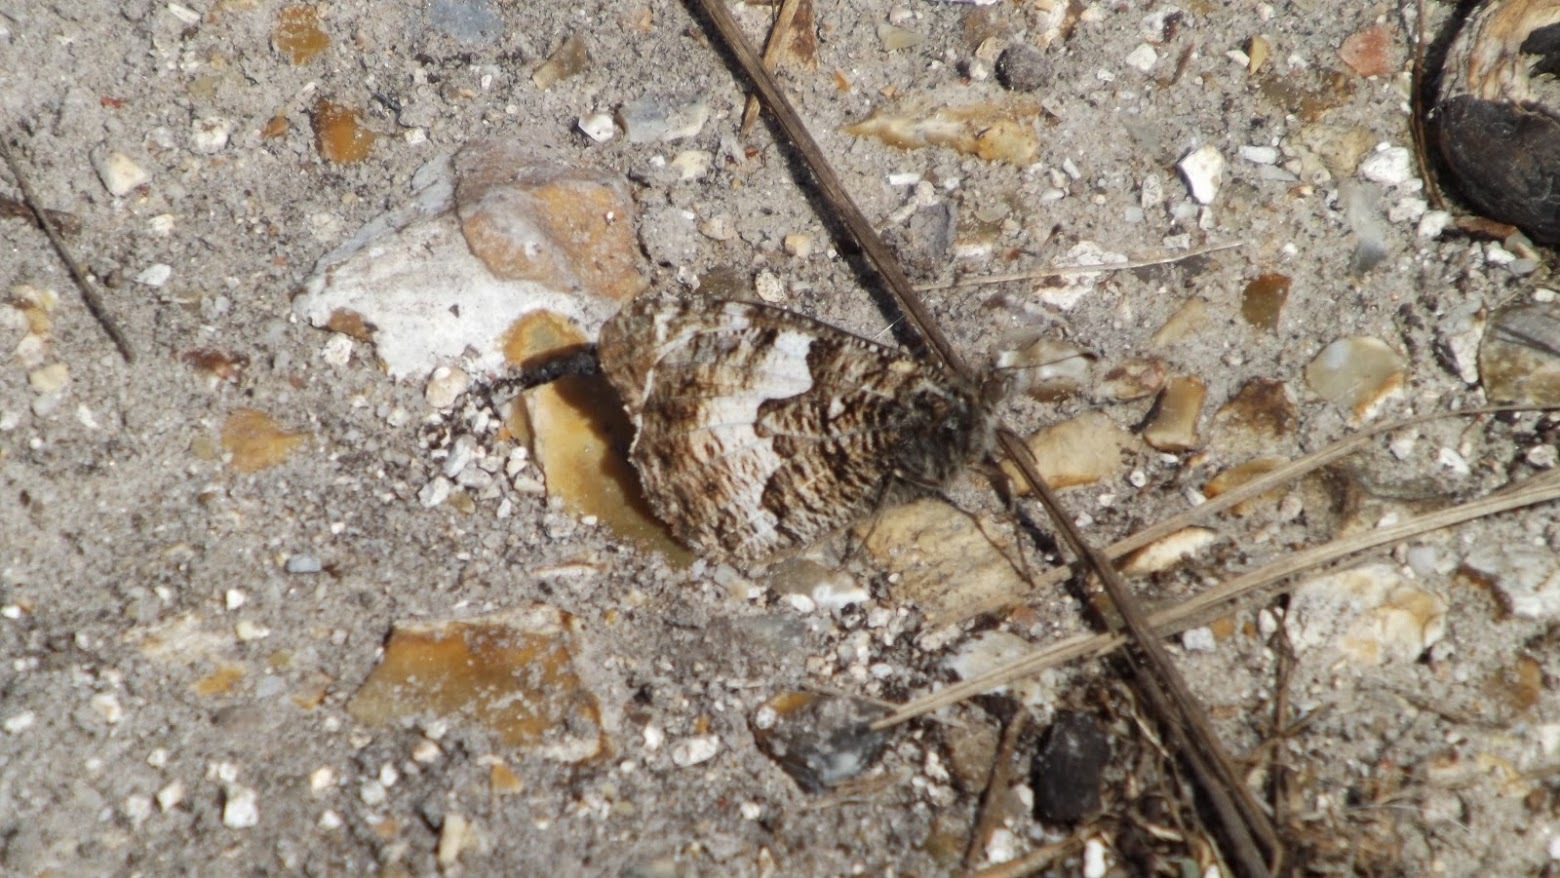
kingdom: Animalia
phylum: Arthropoda
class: Insecta
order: Lepidoptera
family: Nymphalidae
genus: Hipparchia
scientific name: Hipparchia semele
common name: Grayling
